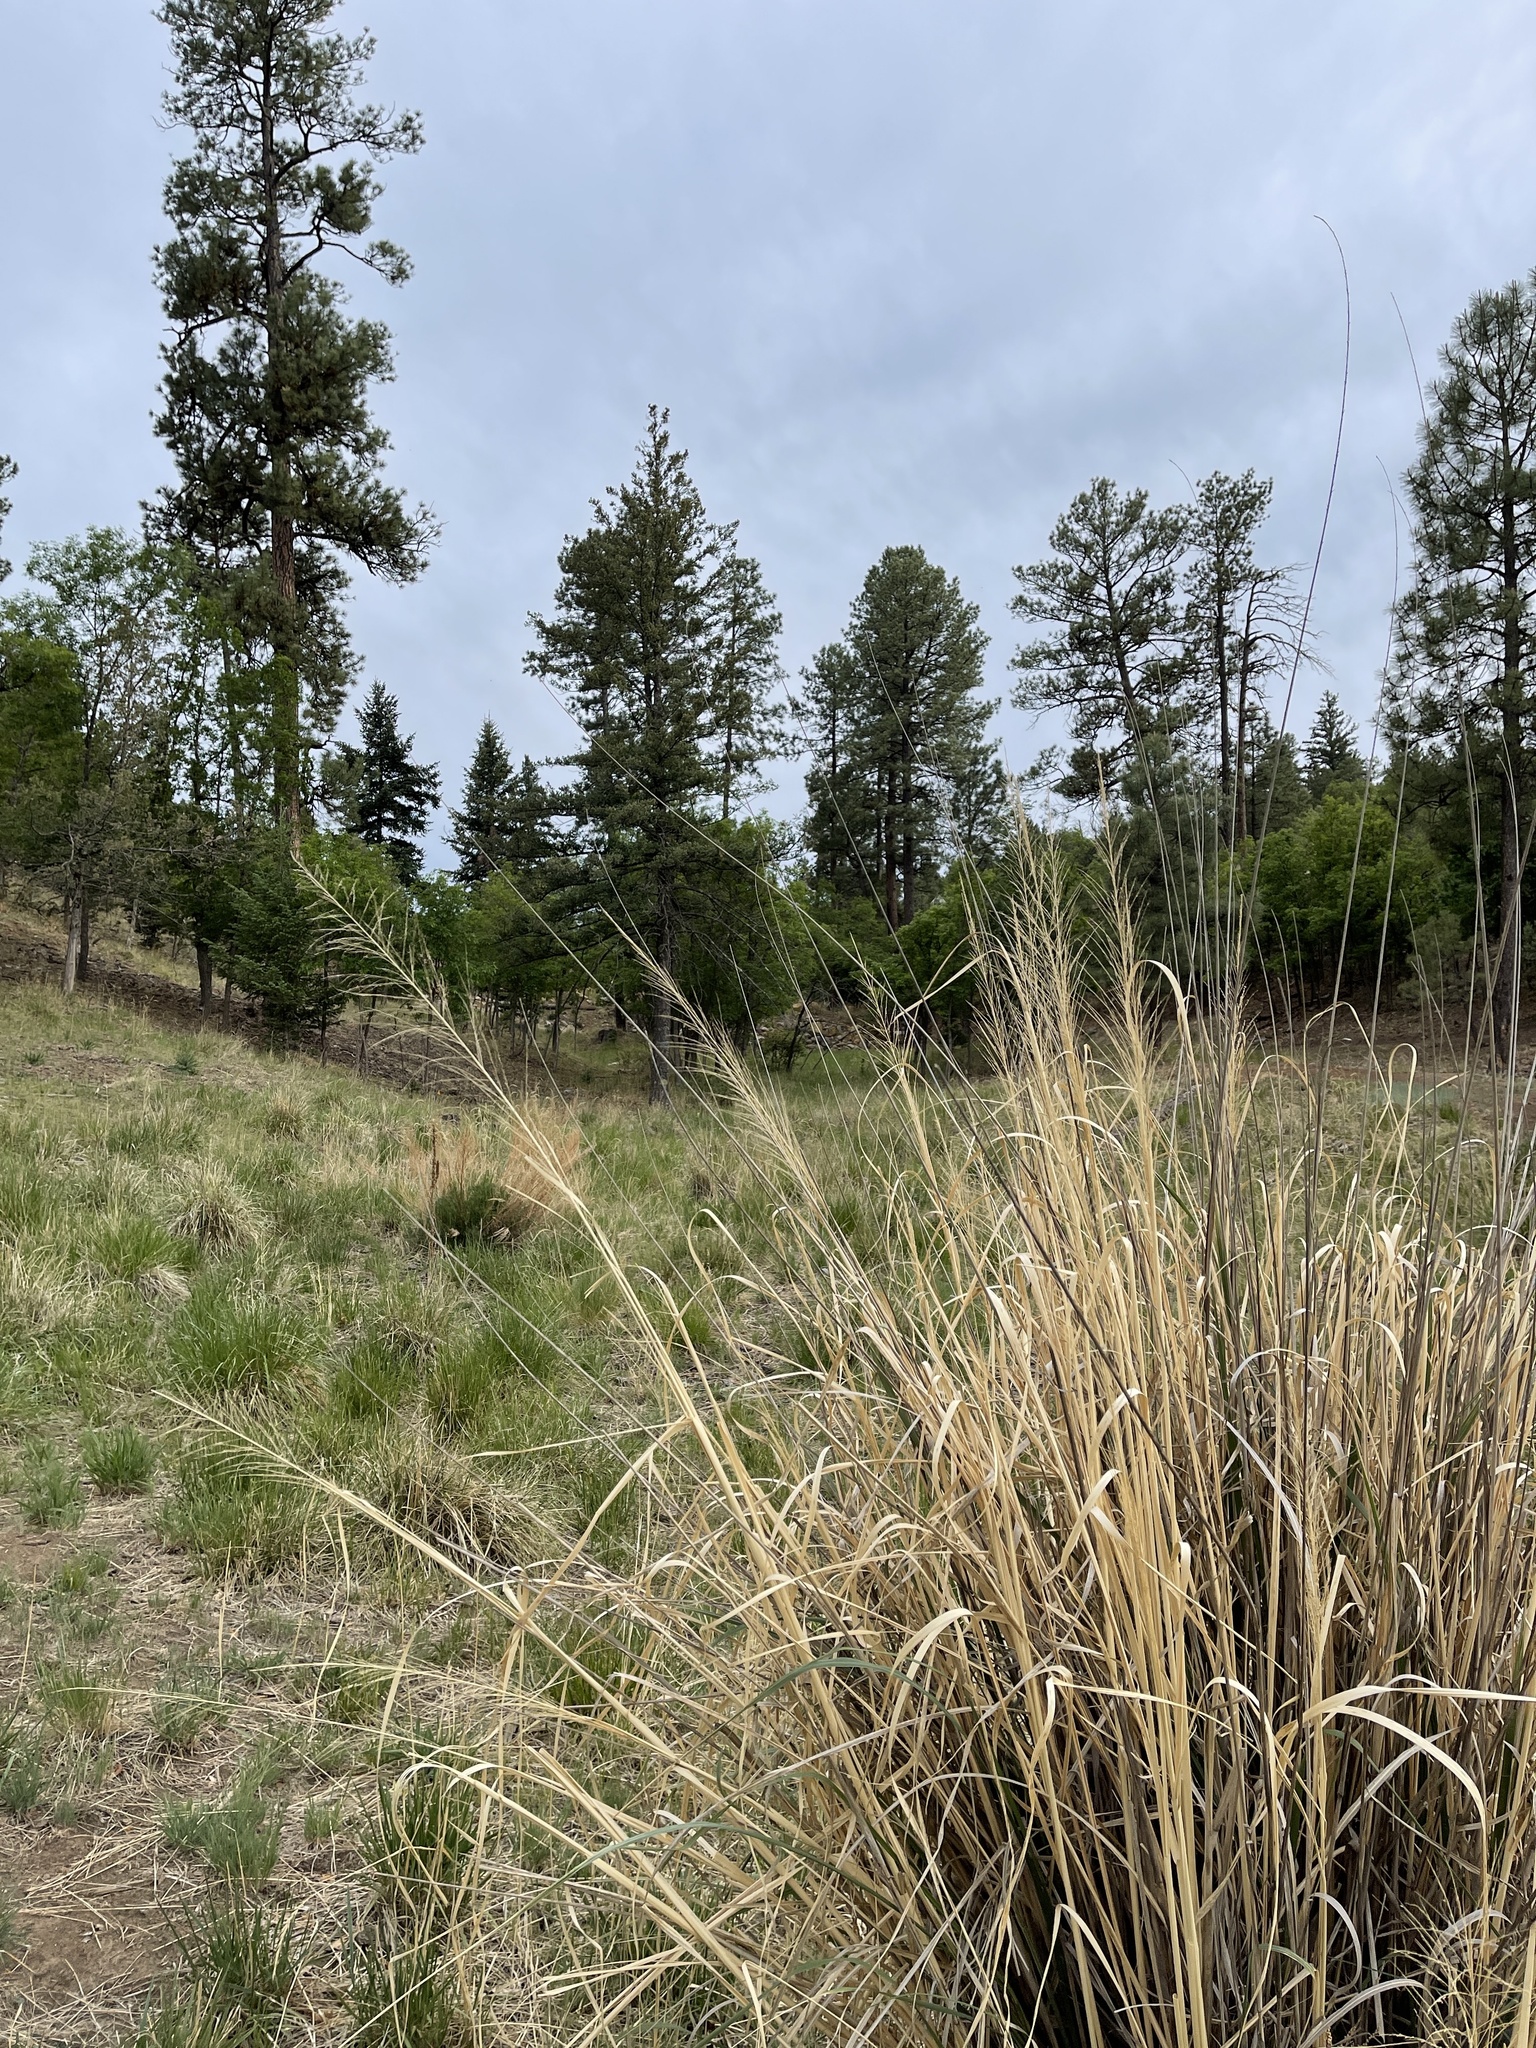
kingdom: Plantae
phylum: Tracheophyta
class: Liliopsida
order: Poales
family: Poaceae
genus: Sporobolus
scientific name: Sporobolus wrightii
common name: Big alkali sacaton
